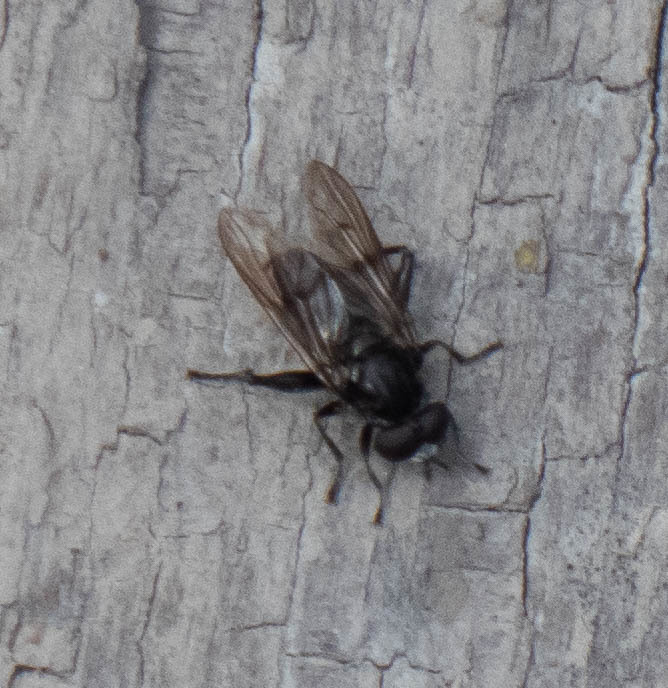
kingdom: Animalia
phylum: Arthropoda
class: Insecta
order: Diptera
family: Syrphidae
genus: Chalcosyrphus
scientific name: Chalcosyrphus
